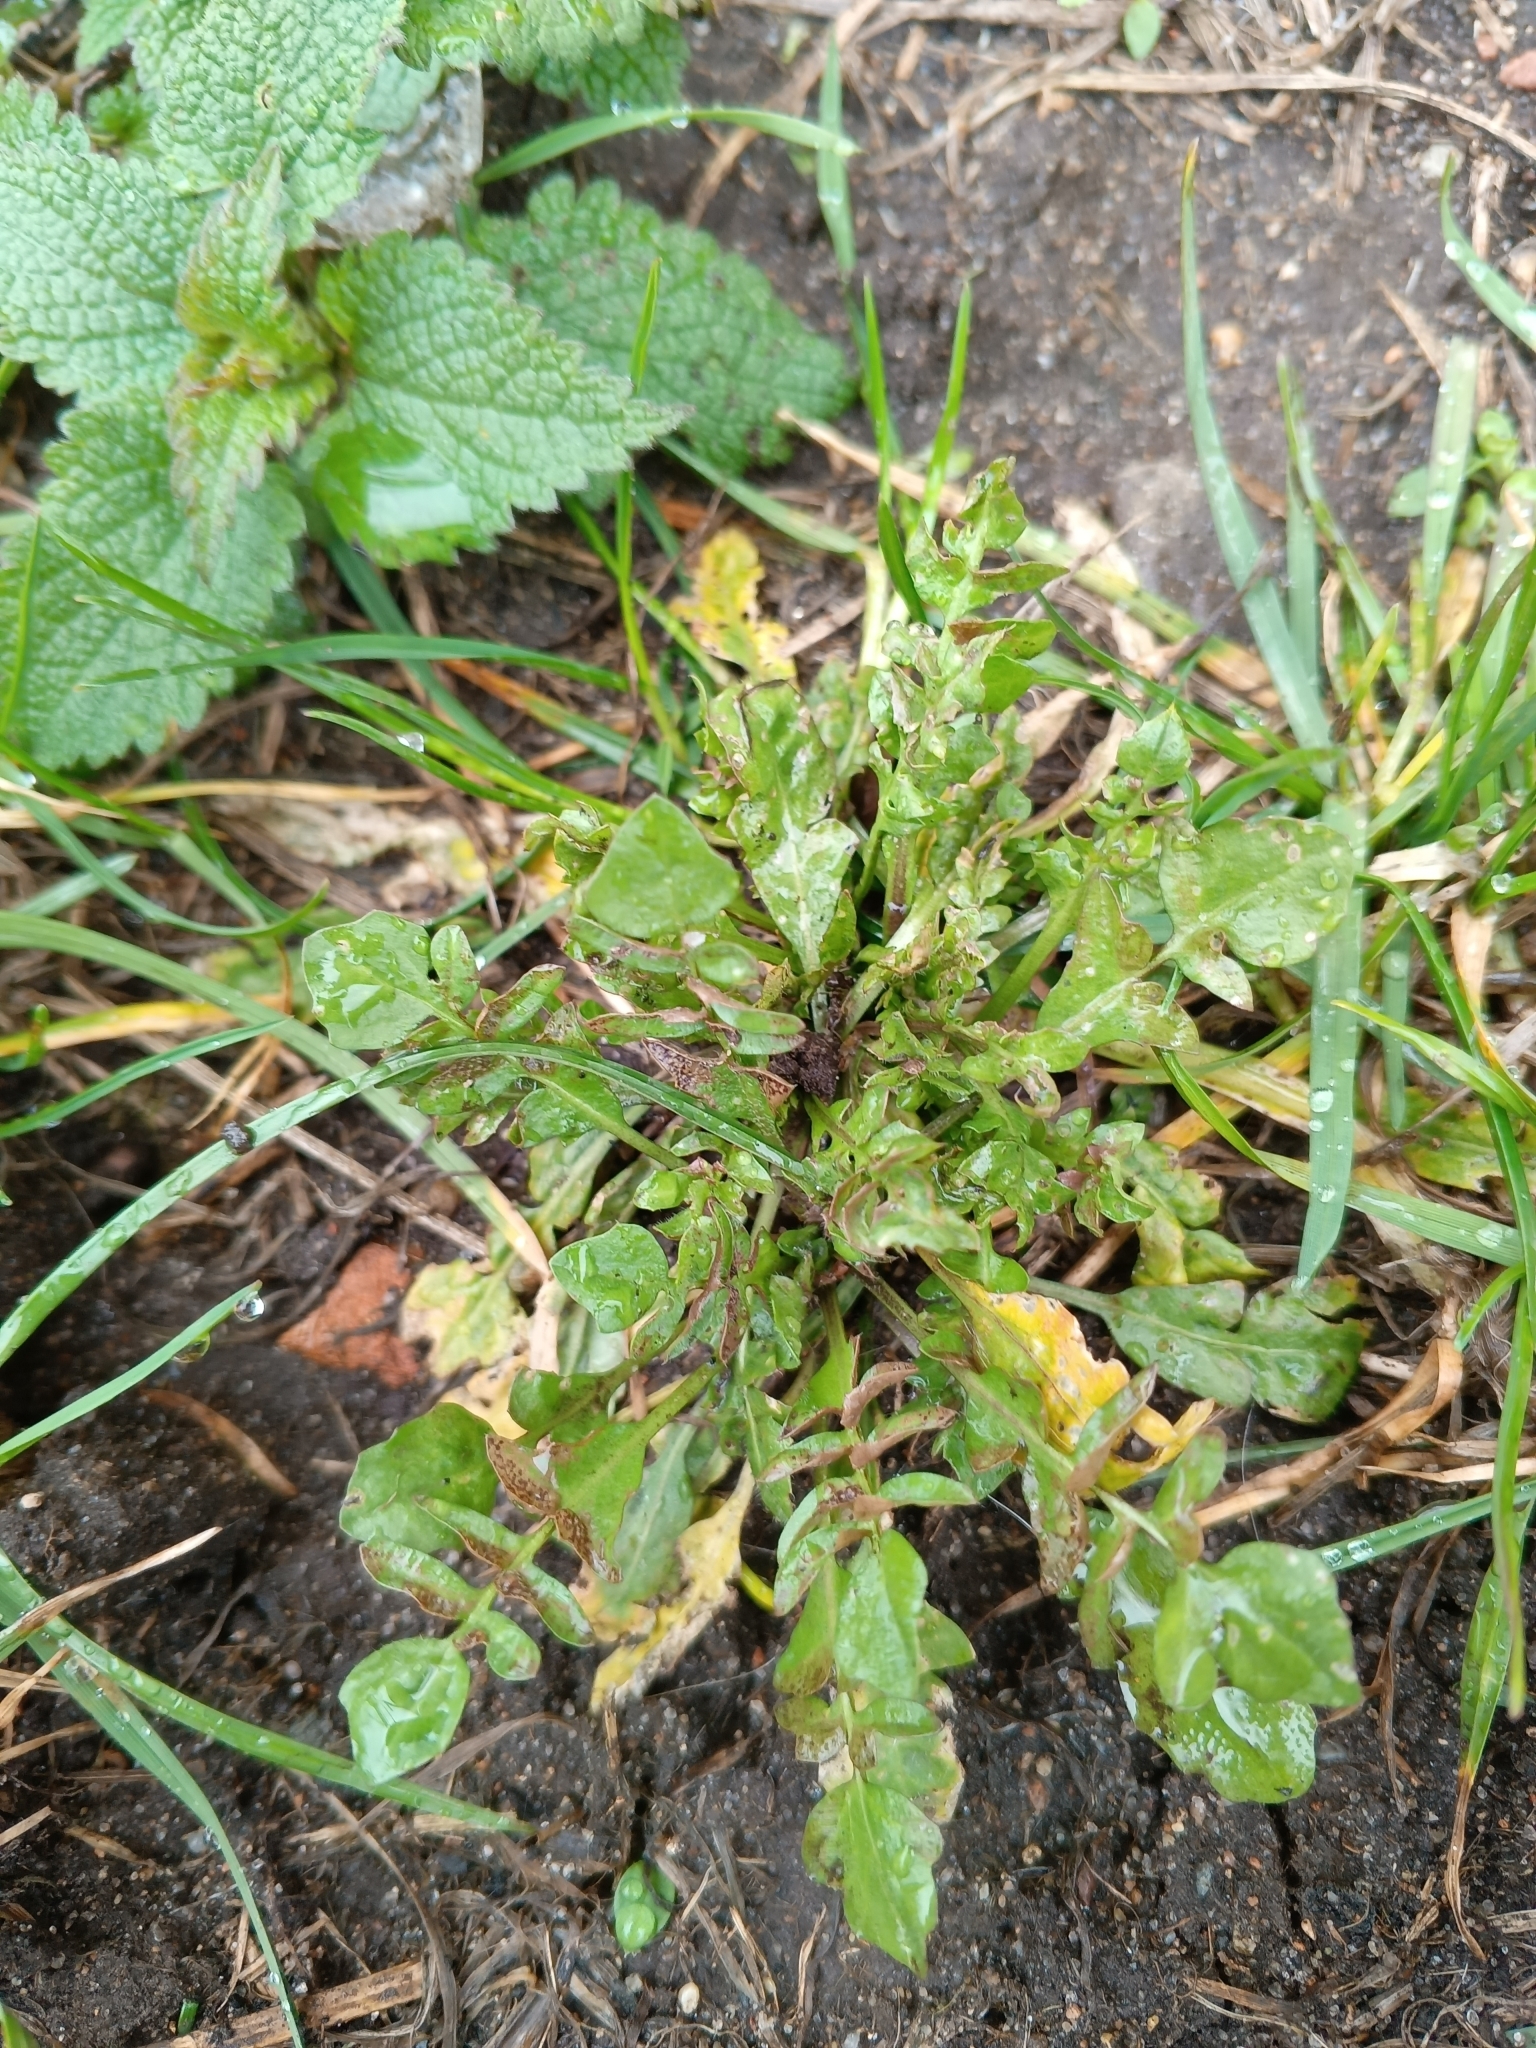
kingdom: Plantae
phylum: Tracheophyta
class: Magnoliopsida
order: Brassicales
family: Brassicaceae
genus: Capsella
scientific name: Capsella bursa-pastoris
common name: Shepherd's purse
